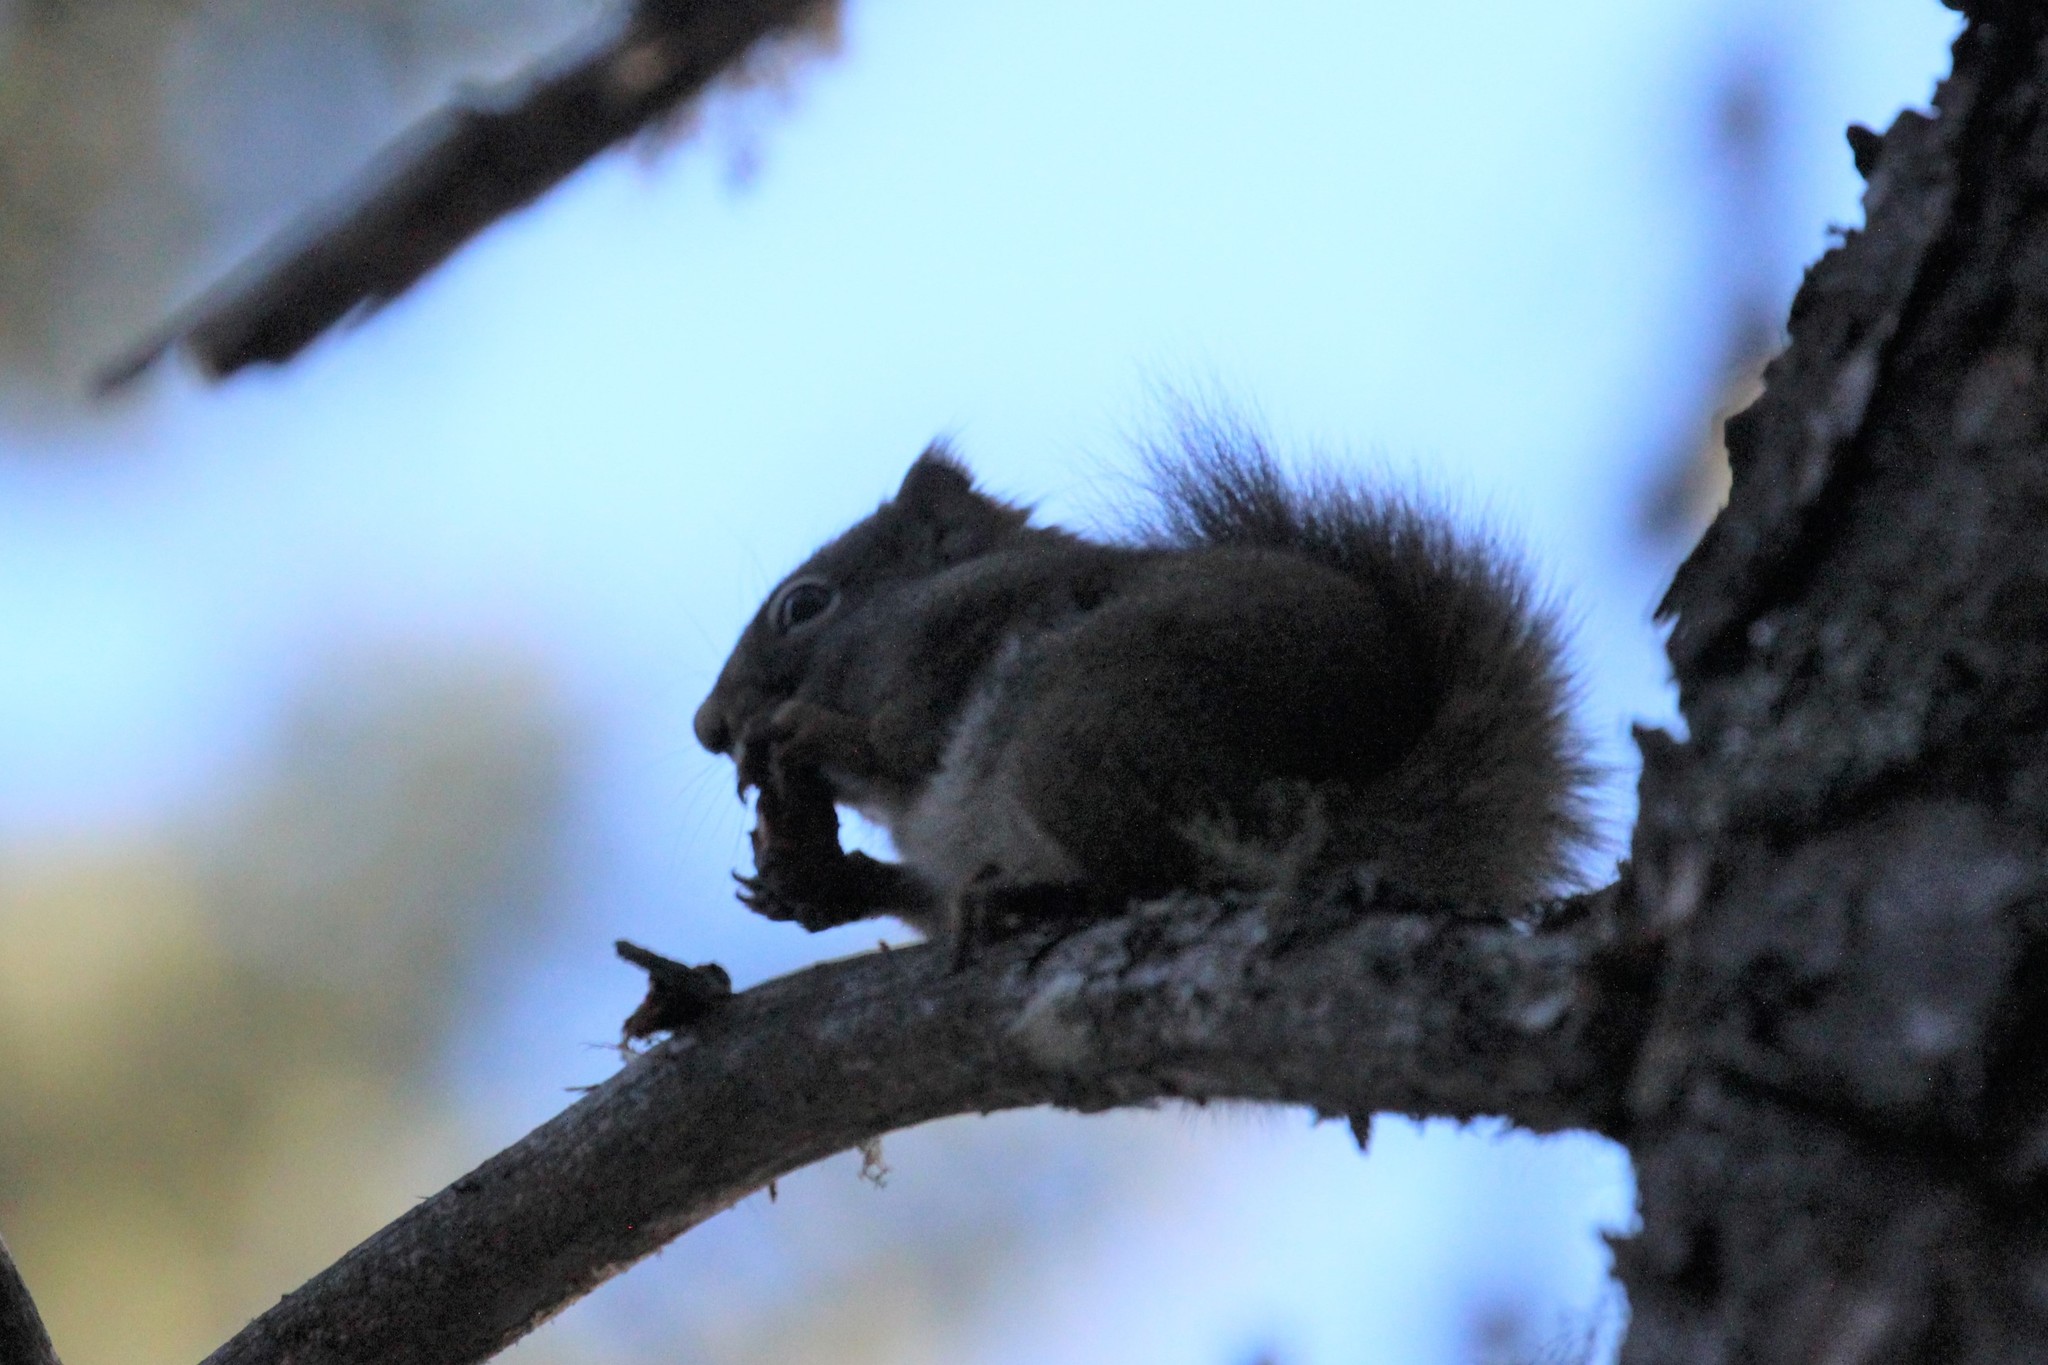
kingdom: Animalia
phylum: Chordata
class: Mammalia
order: Rodentia
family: Sciuridae
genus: Tamiasciurus
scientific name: Tamiasciurus hudsonicus
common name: Red squirrel
